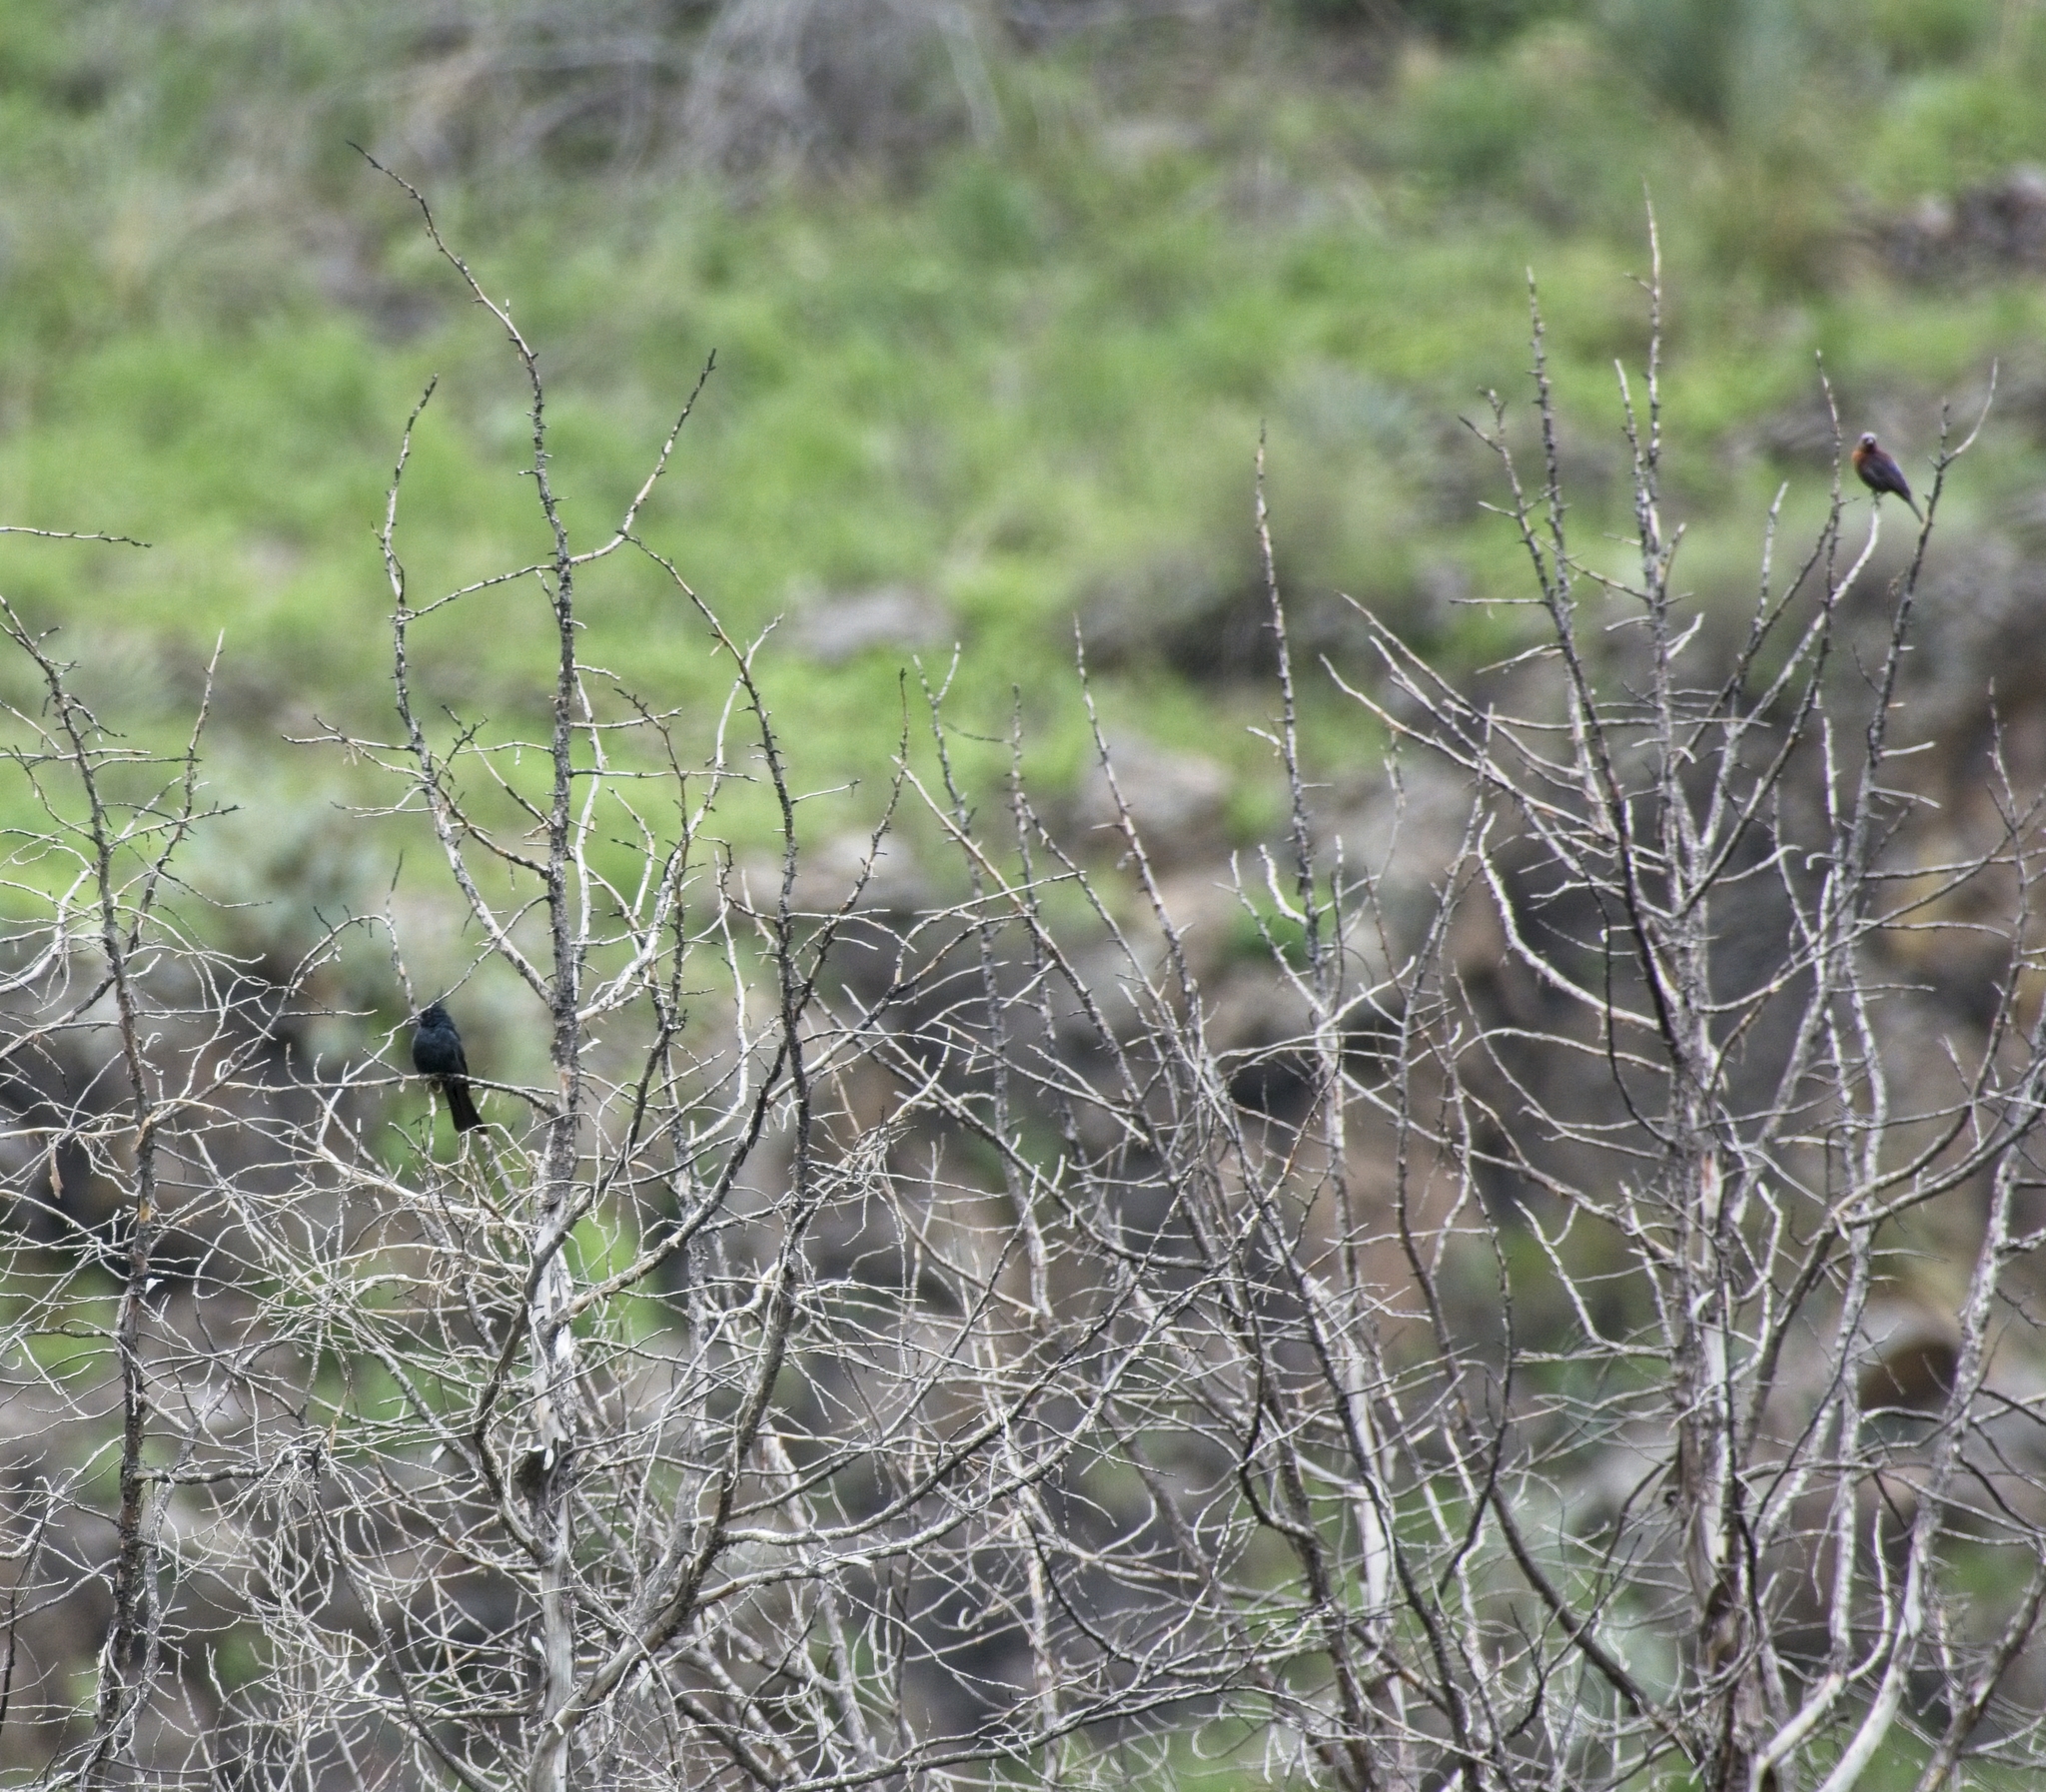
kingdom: Animalia
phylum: Chordata
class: Aves
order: Passeriformes
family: Ptilogonatidae
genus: Phainopepla
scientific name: Phainopepla nitens
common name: Phainopepla
